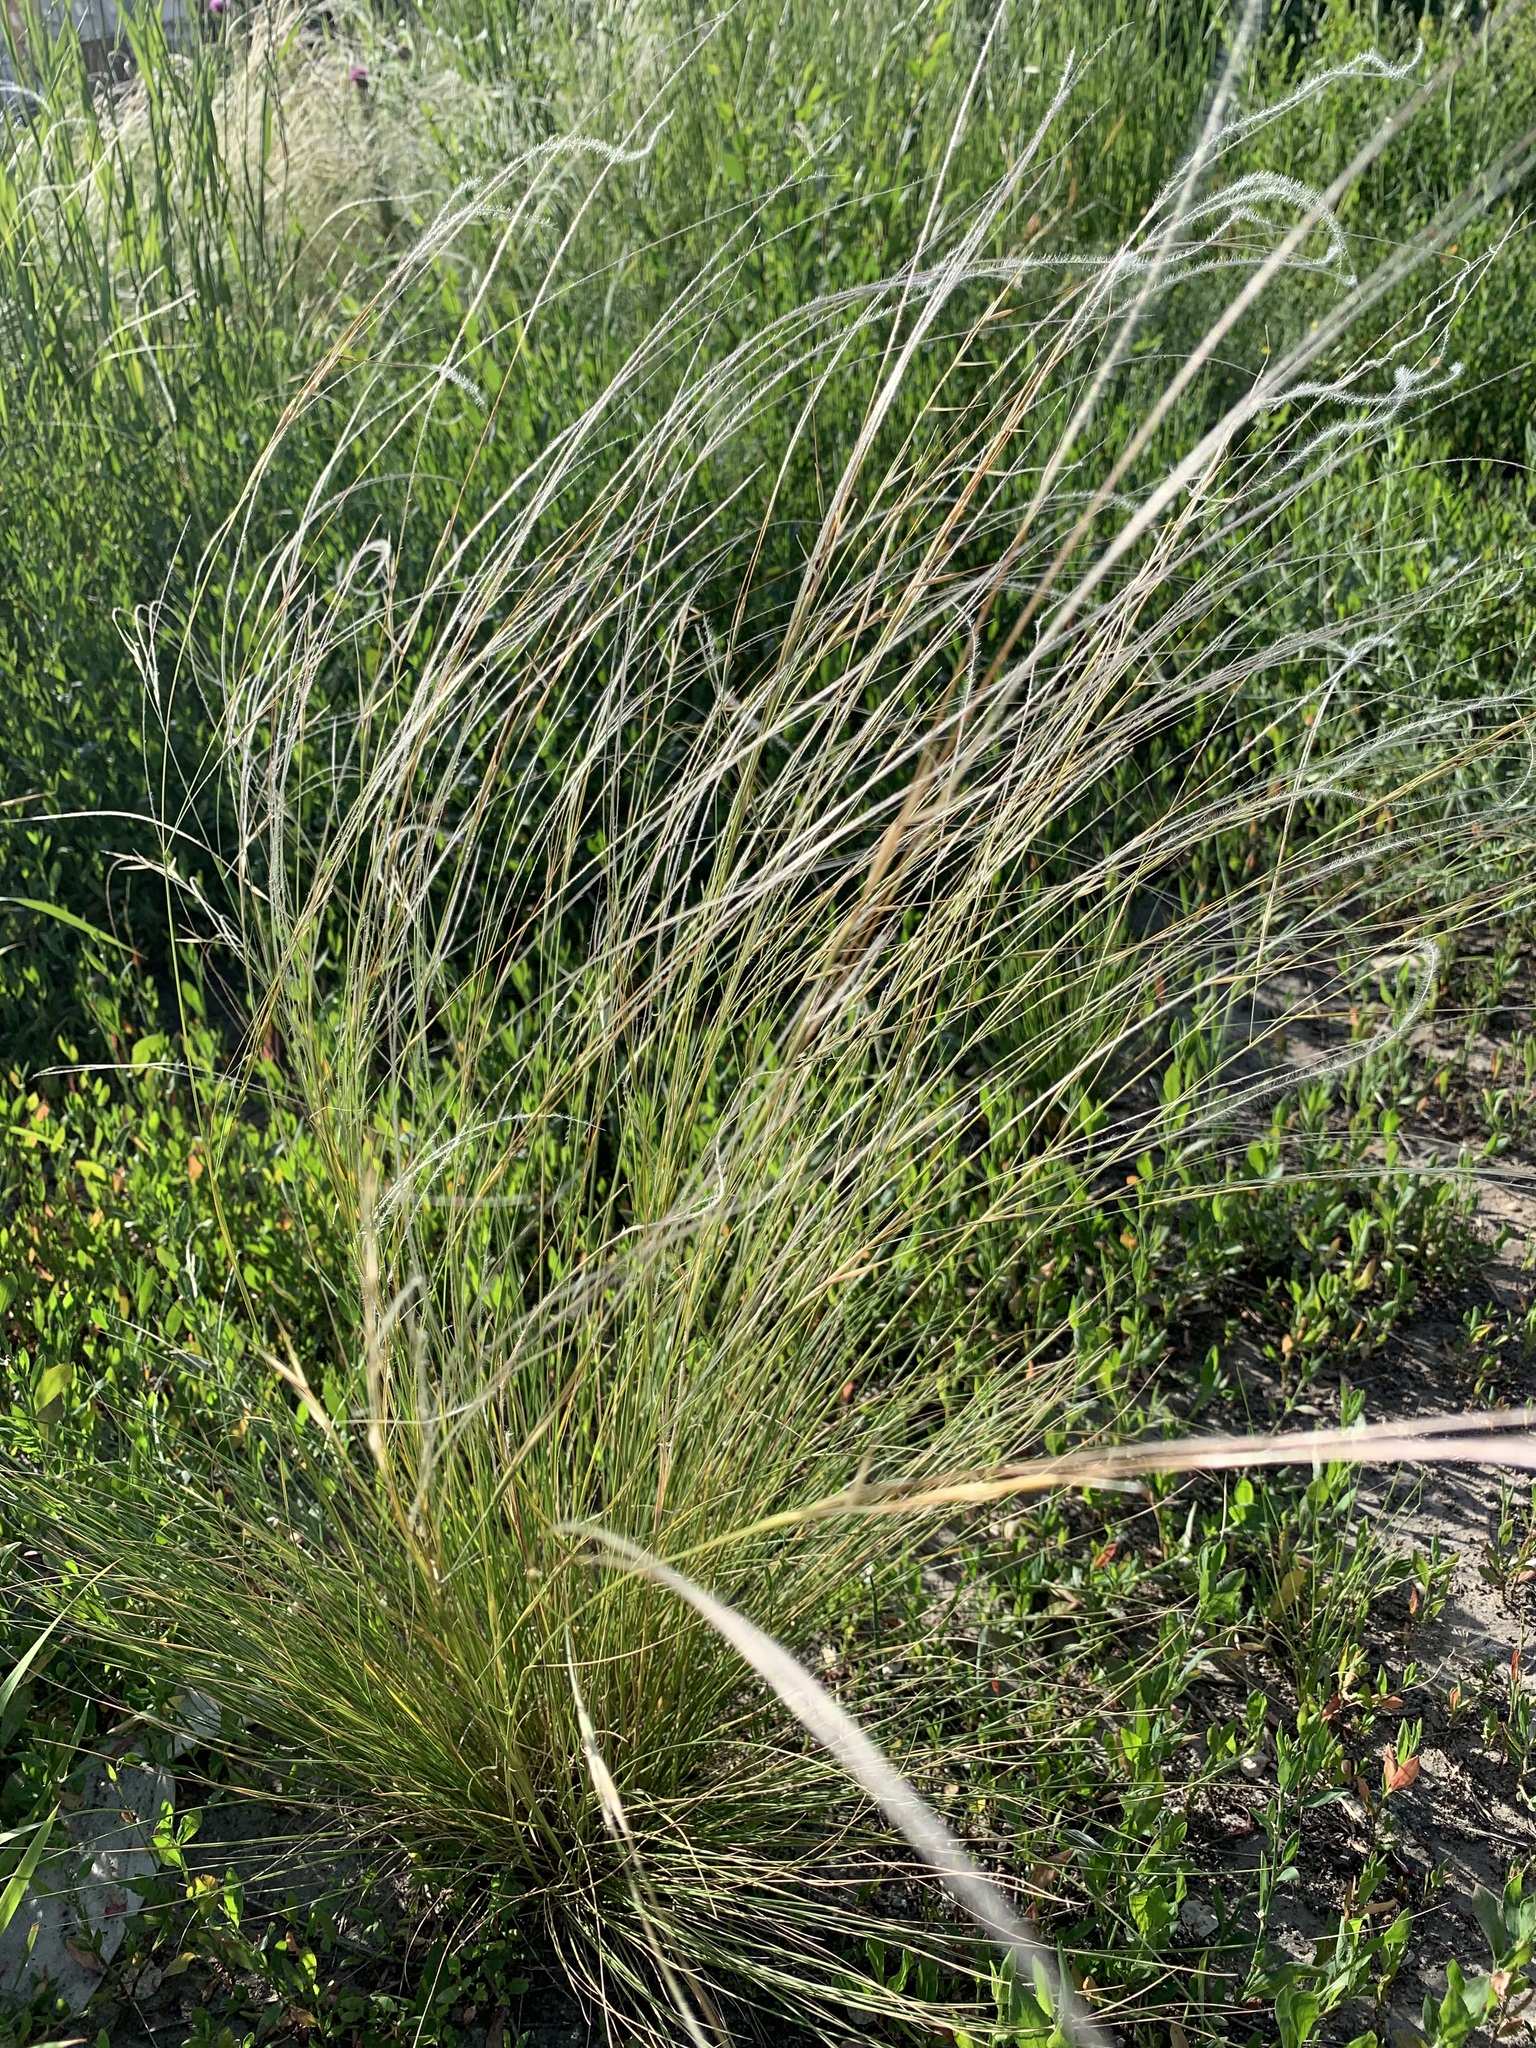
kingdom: Plantae
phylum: Tracheophyta
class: Liliopsida
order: Poales
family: Poaceae
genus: Stipa
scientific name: Stipa lessingiana
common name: Needle grass
